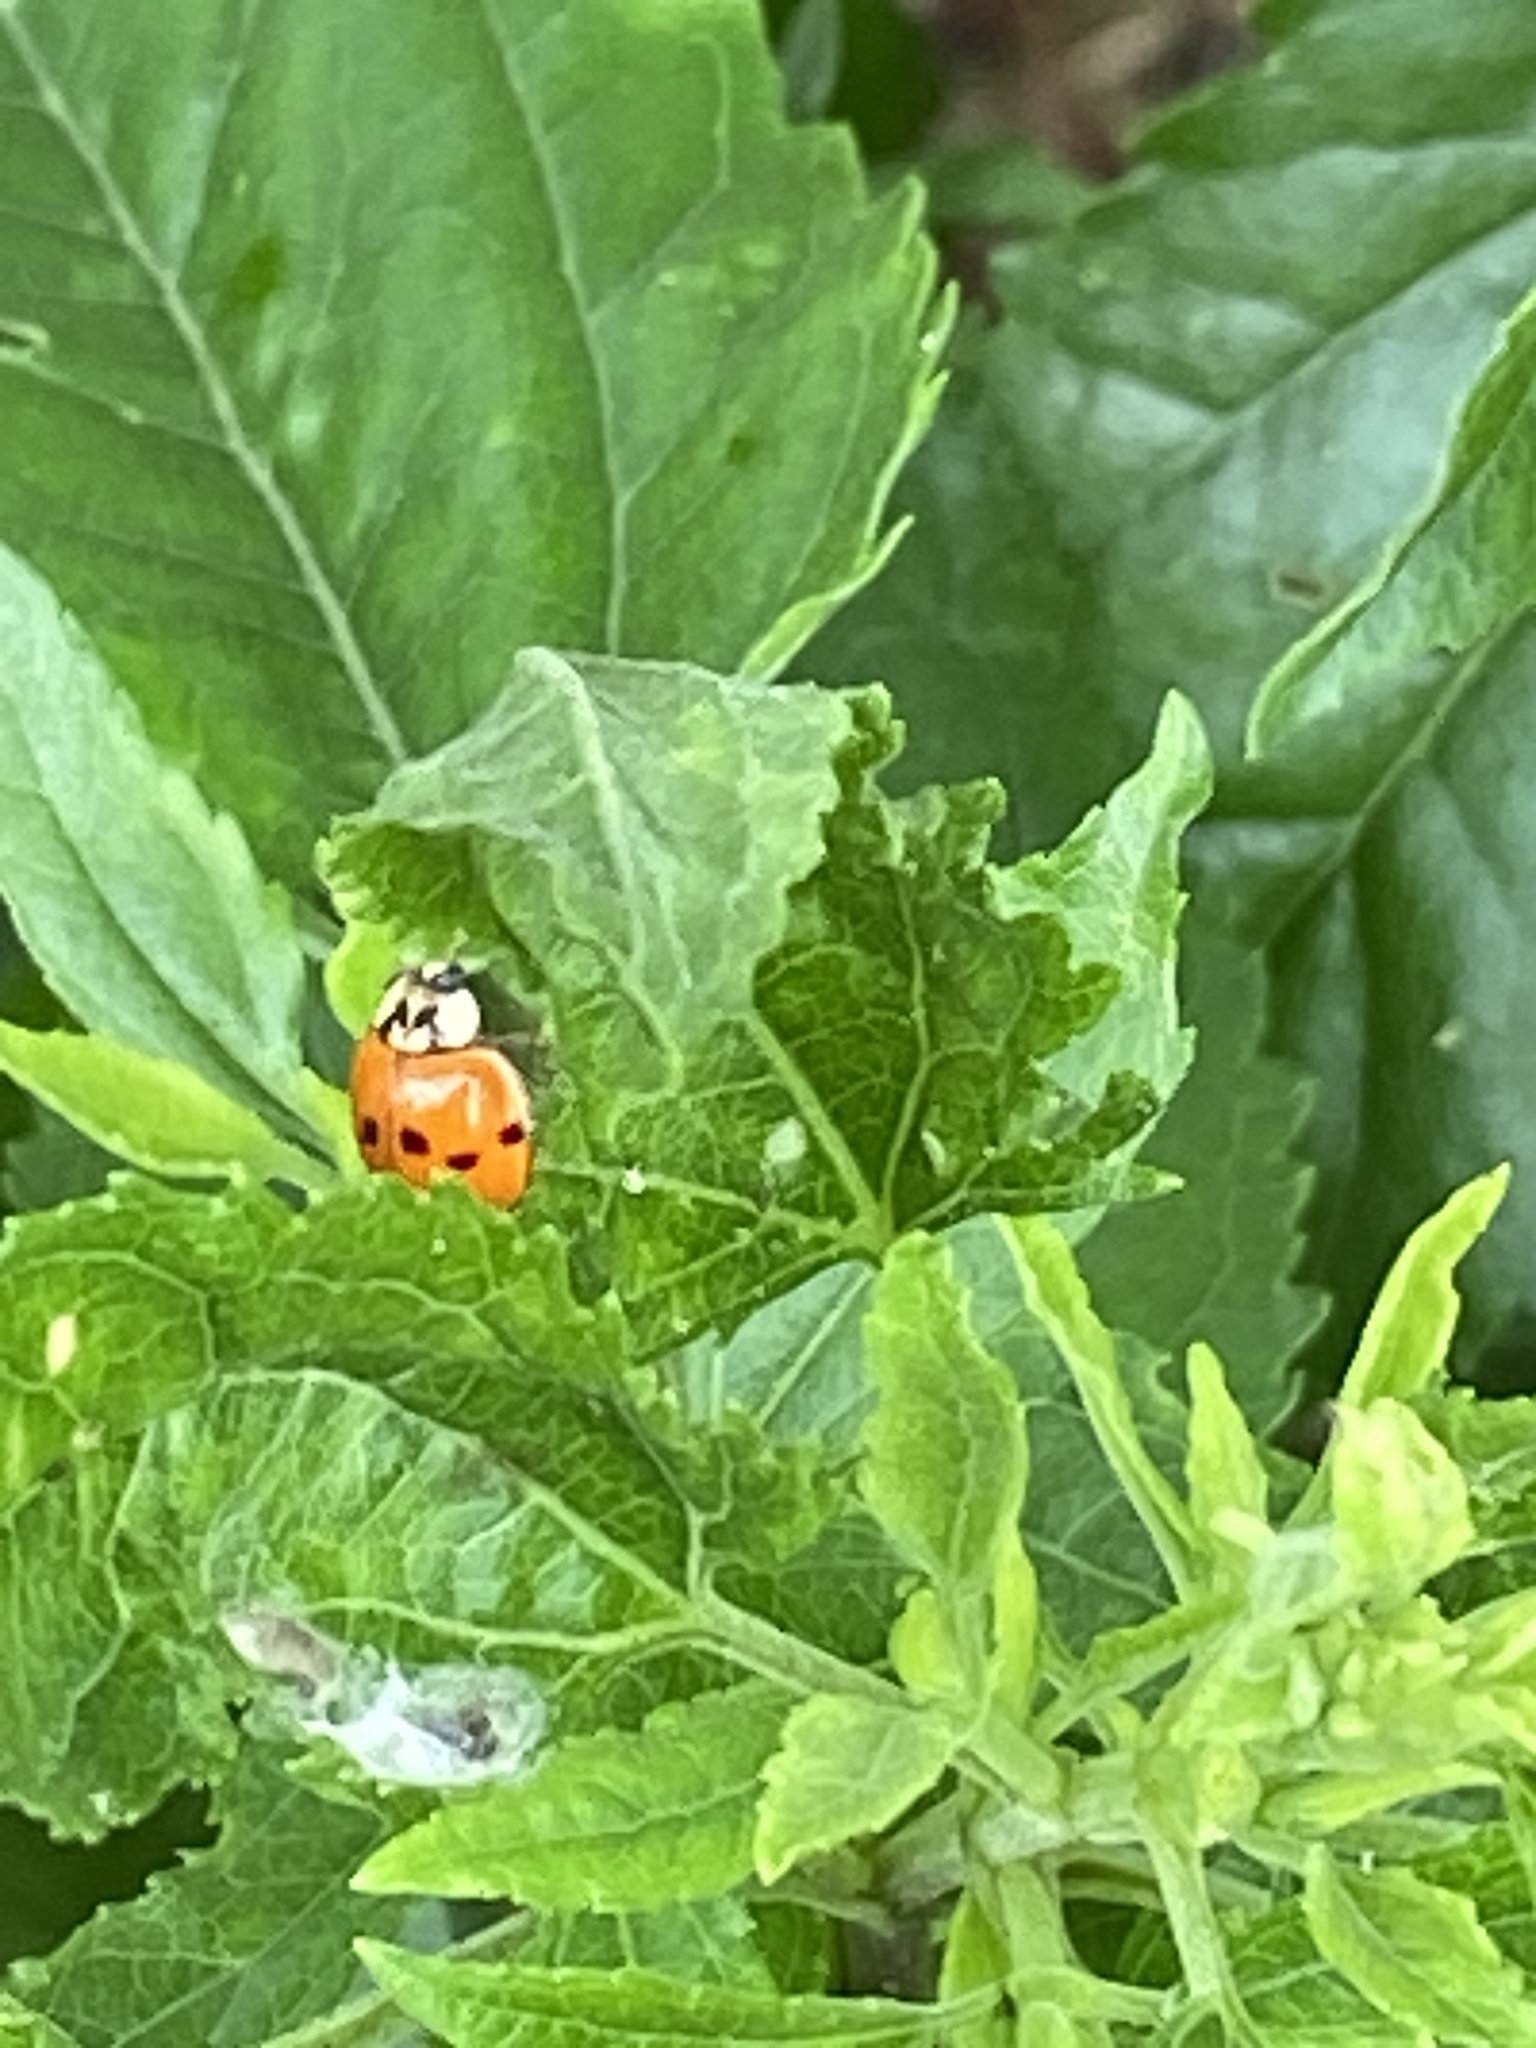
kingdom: Animalia
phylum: Arthropoda
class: Insecta
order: Coleoptera
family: Coccinellidae
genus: Harmonia
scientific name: Harmonia axyridis
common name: Harlequin ladybird
